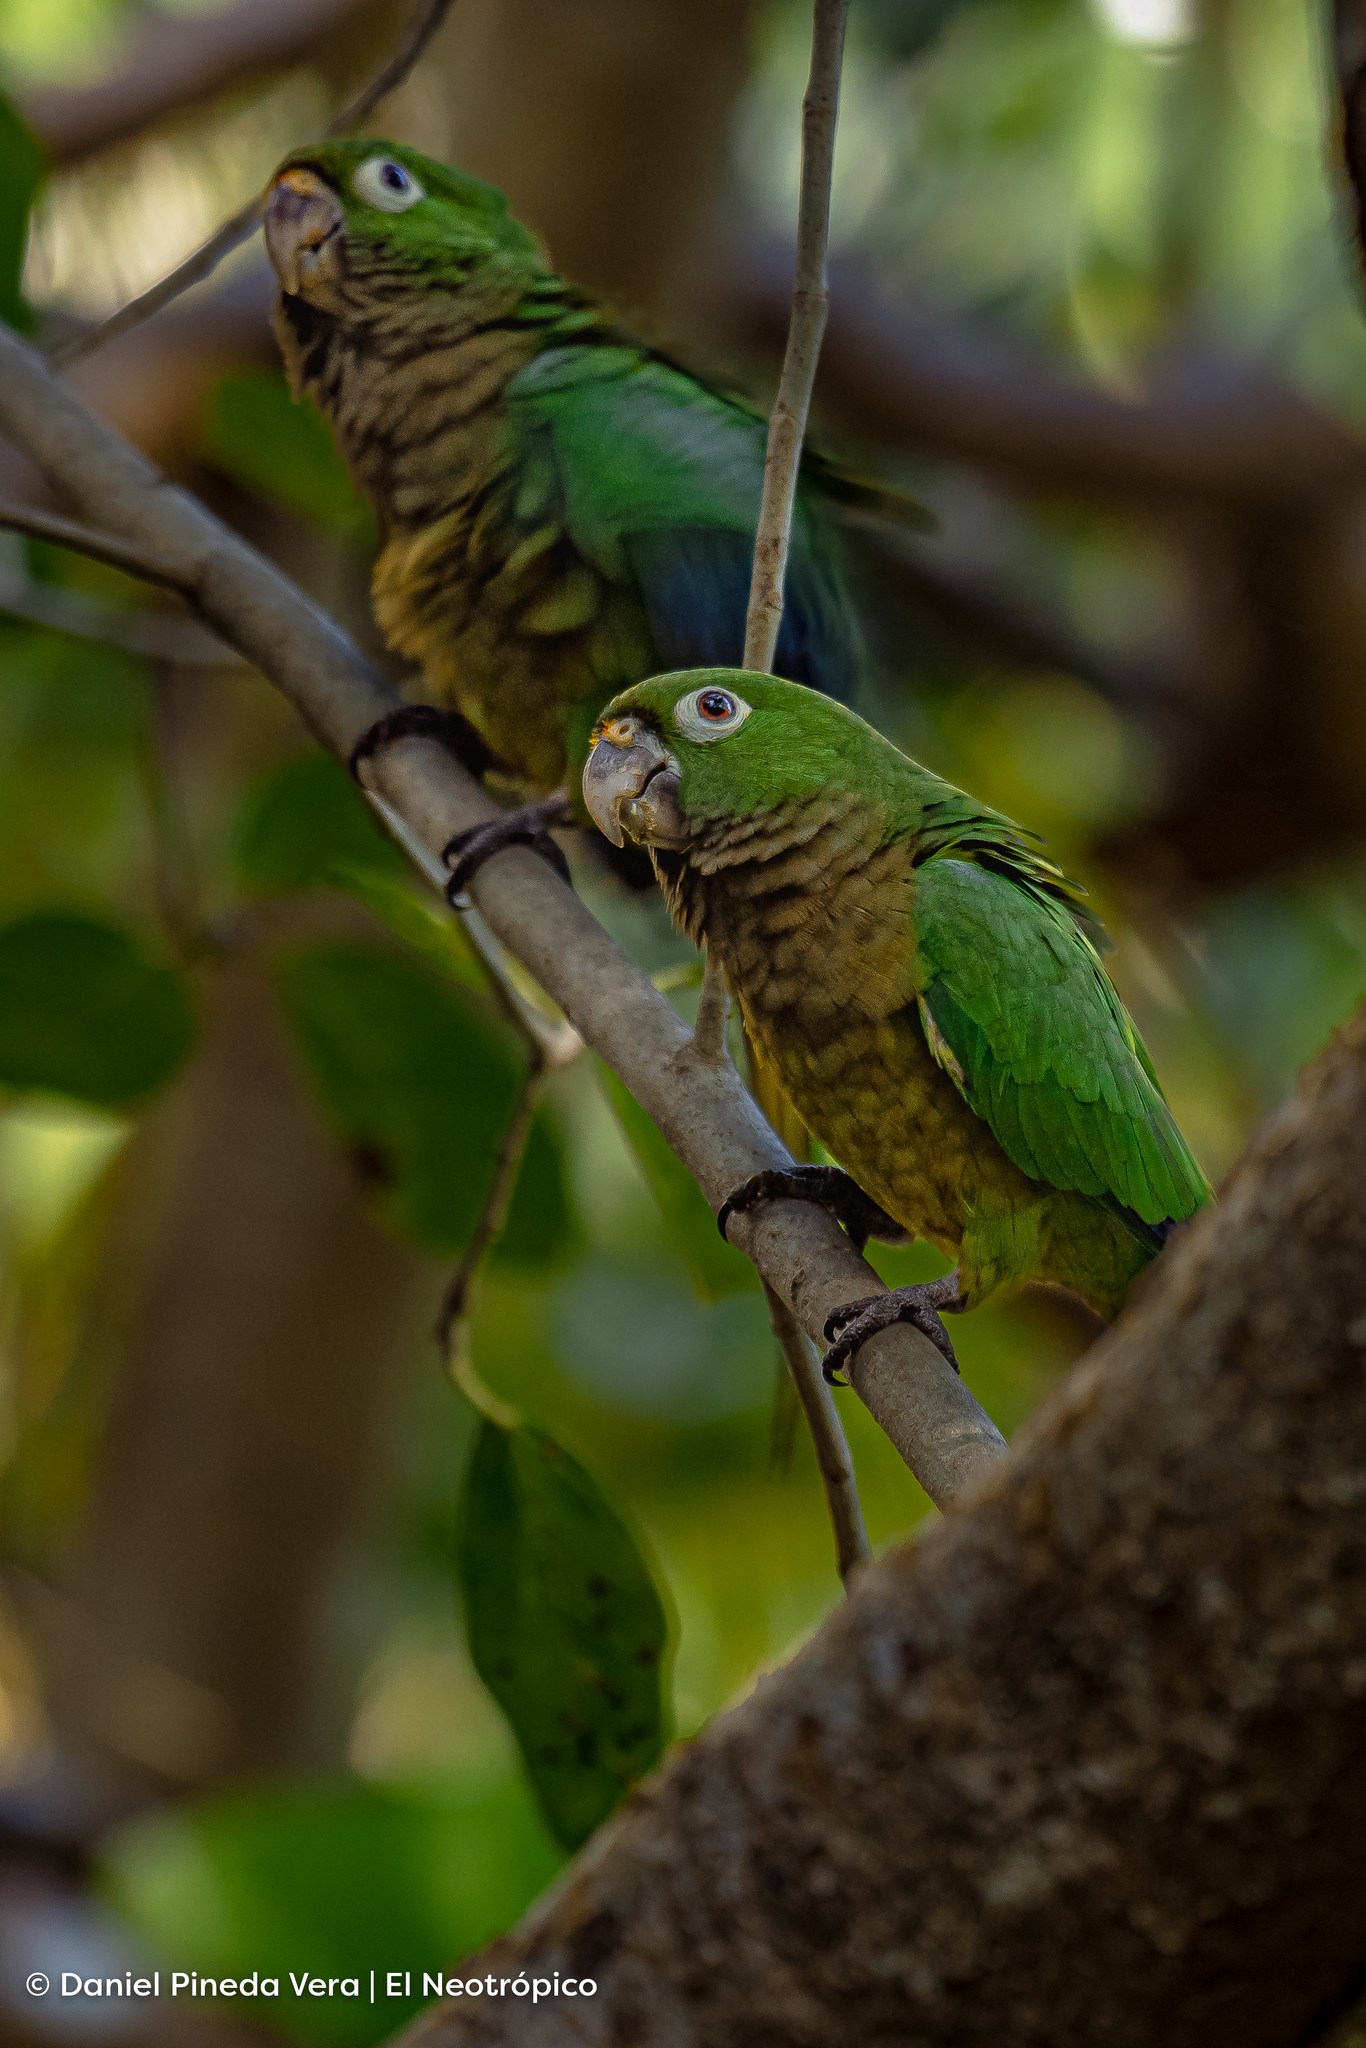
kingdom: Animalia
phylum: Chordata
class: Aves
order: Psittaciformes
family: Psittacidae
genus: Aratinga
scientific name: Aratinga nana
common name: Olive-throated parakeet
